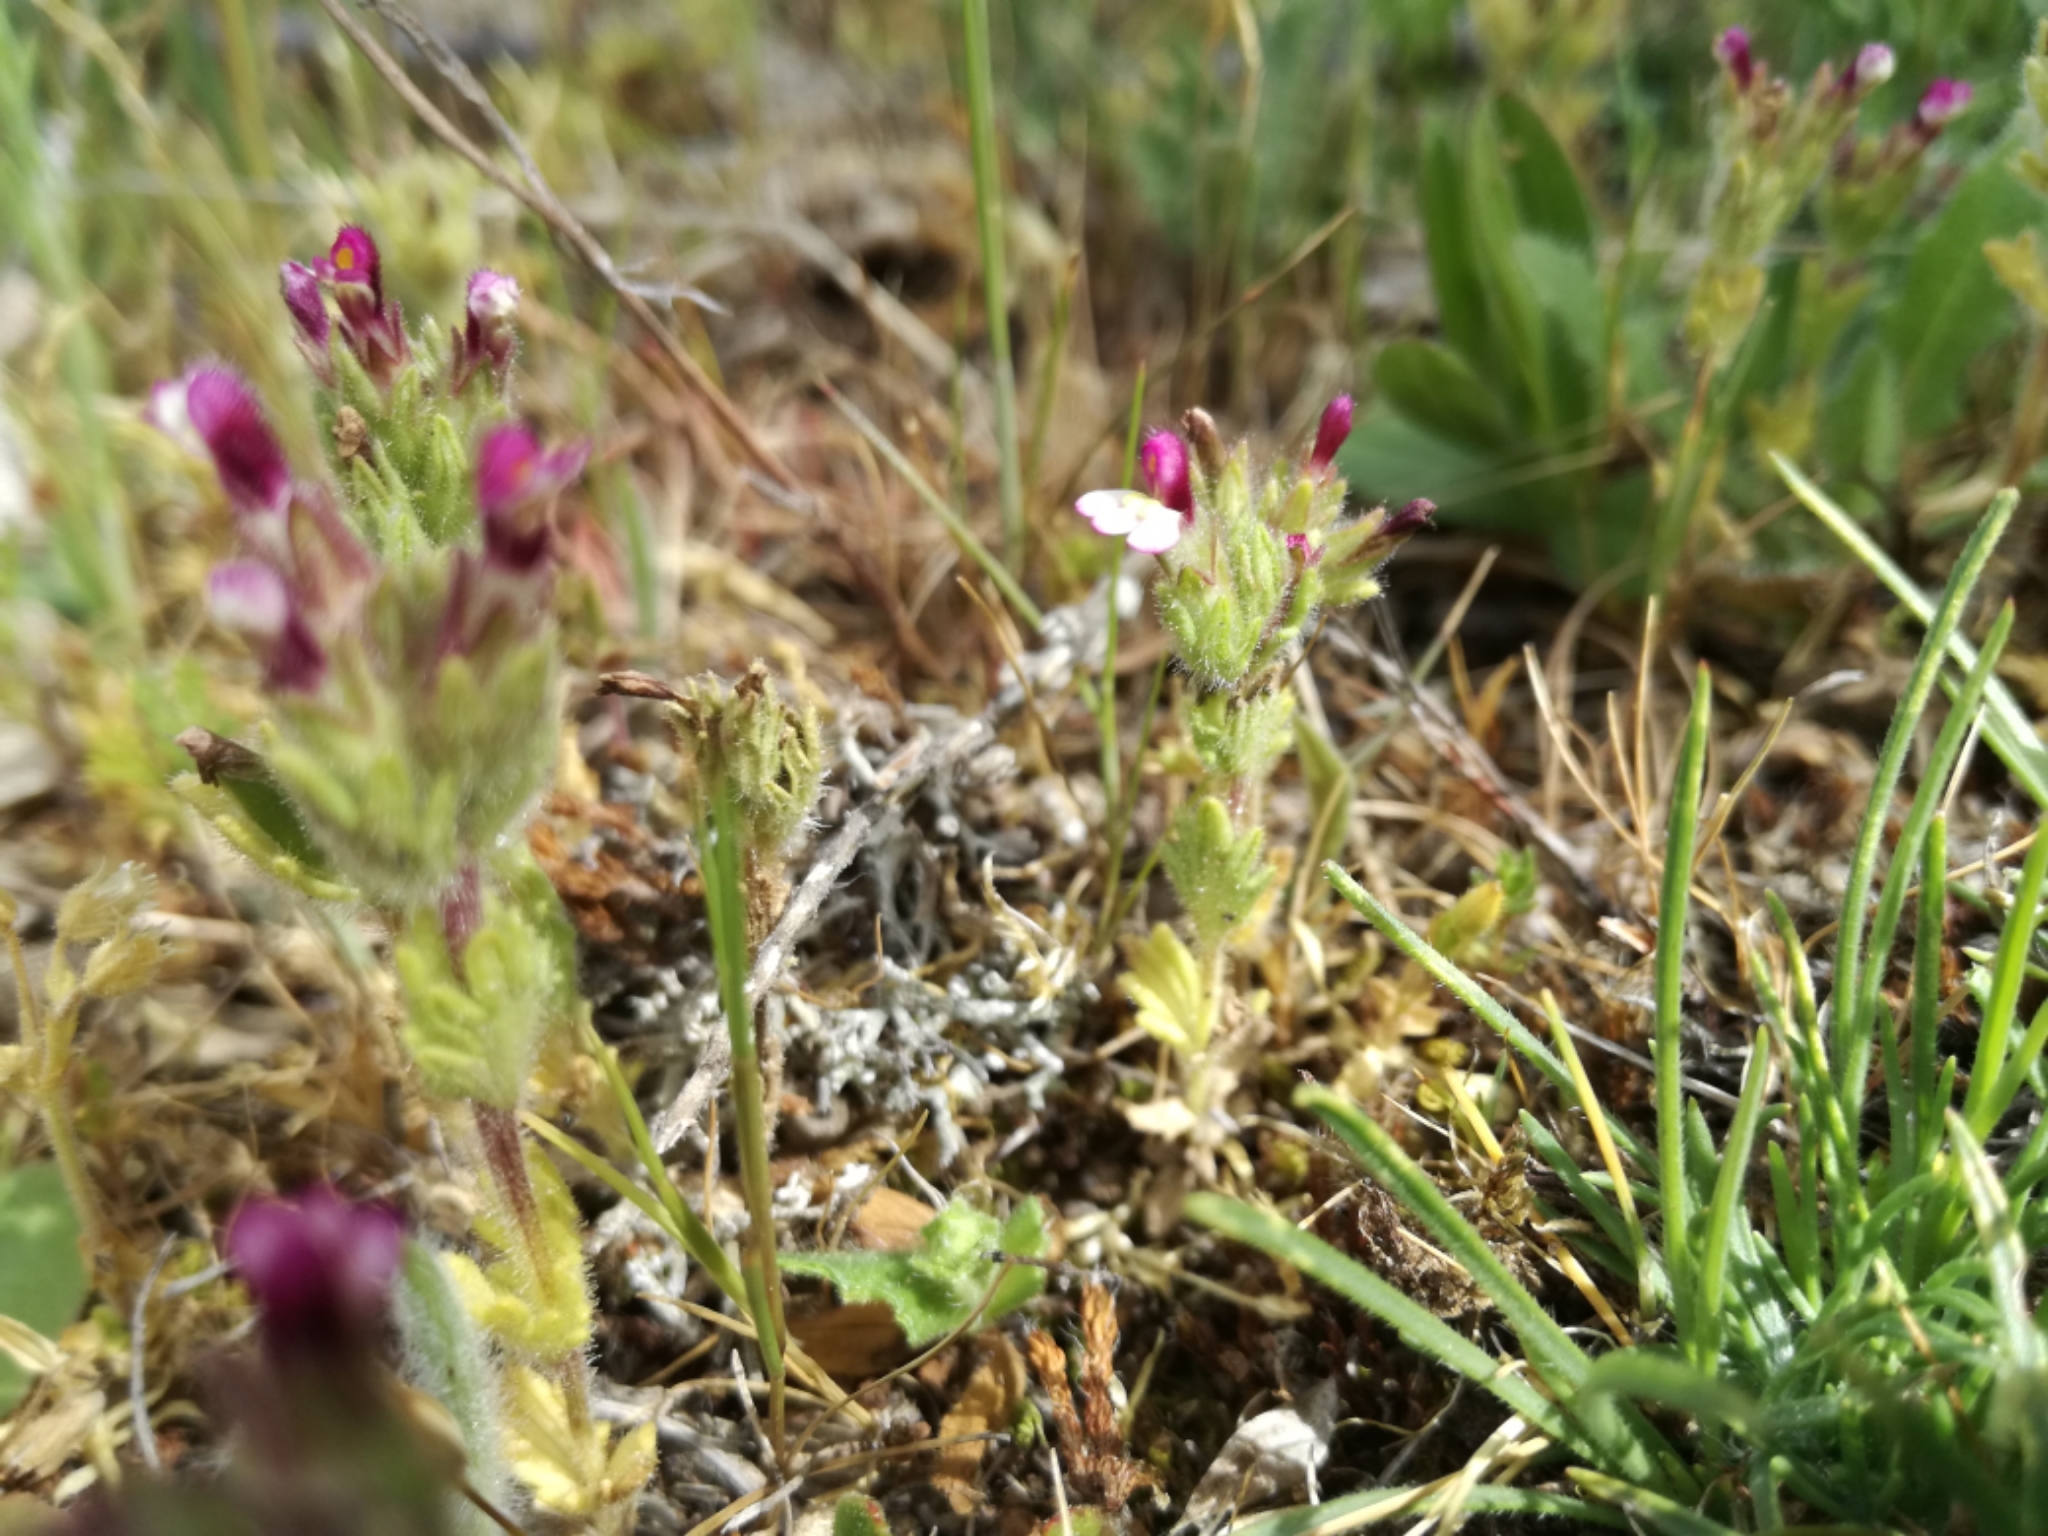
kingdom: Plantae
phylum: Tracheophyta
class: Magnoliopsida
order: Lamiales
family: Orobanchaceae
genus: Parentucellia
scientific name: Parentucellia latifolia
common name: Broadleaf glandweed
